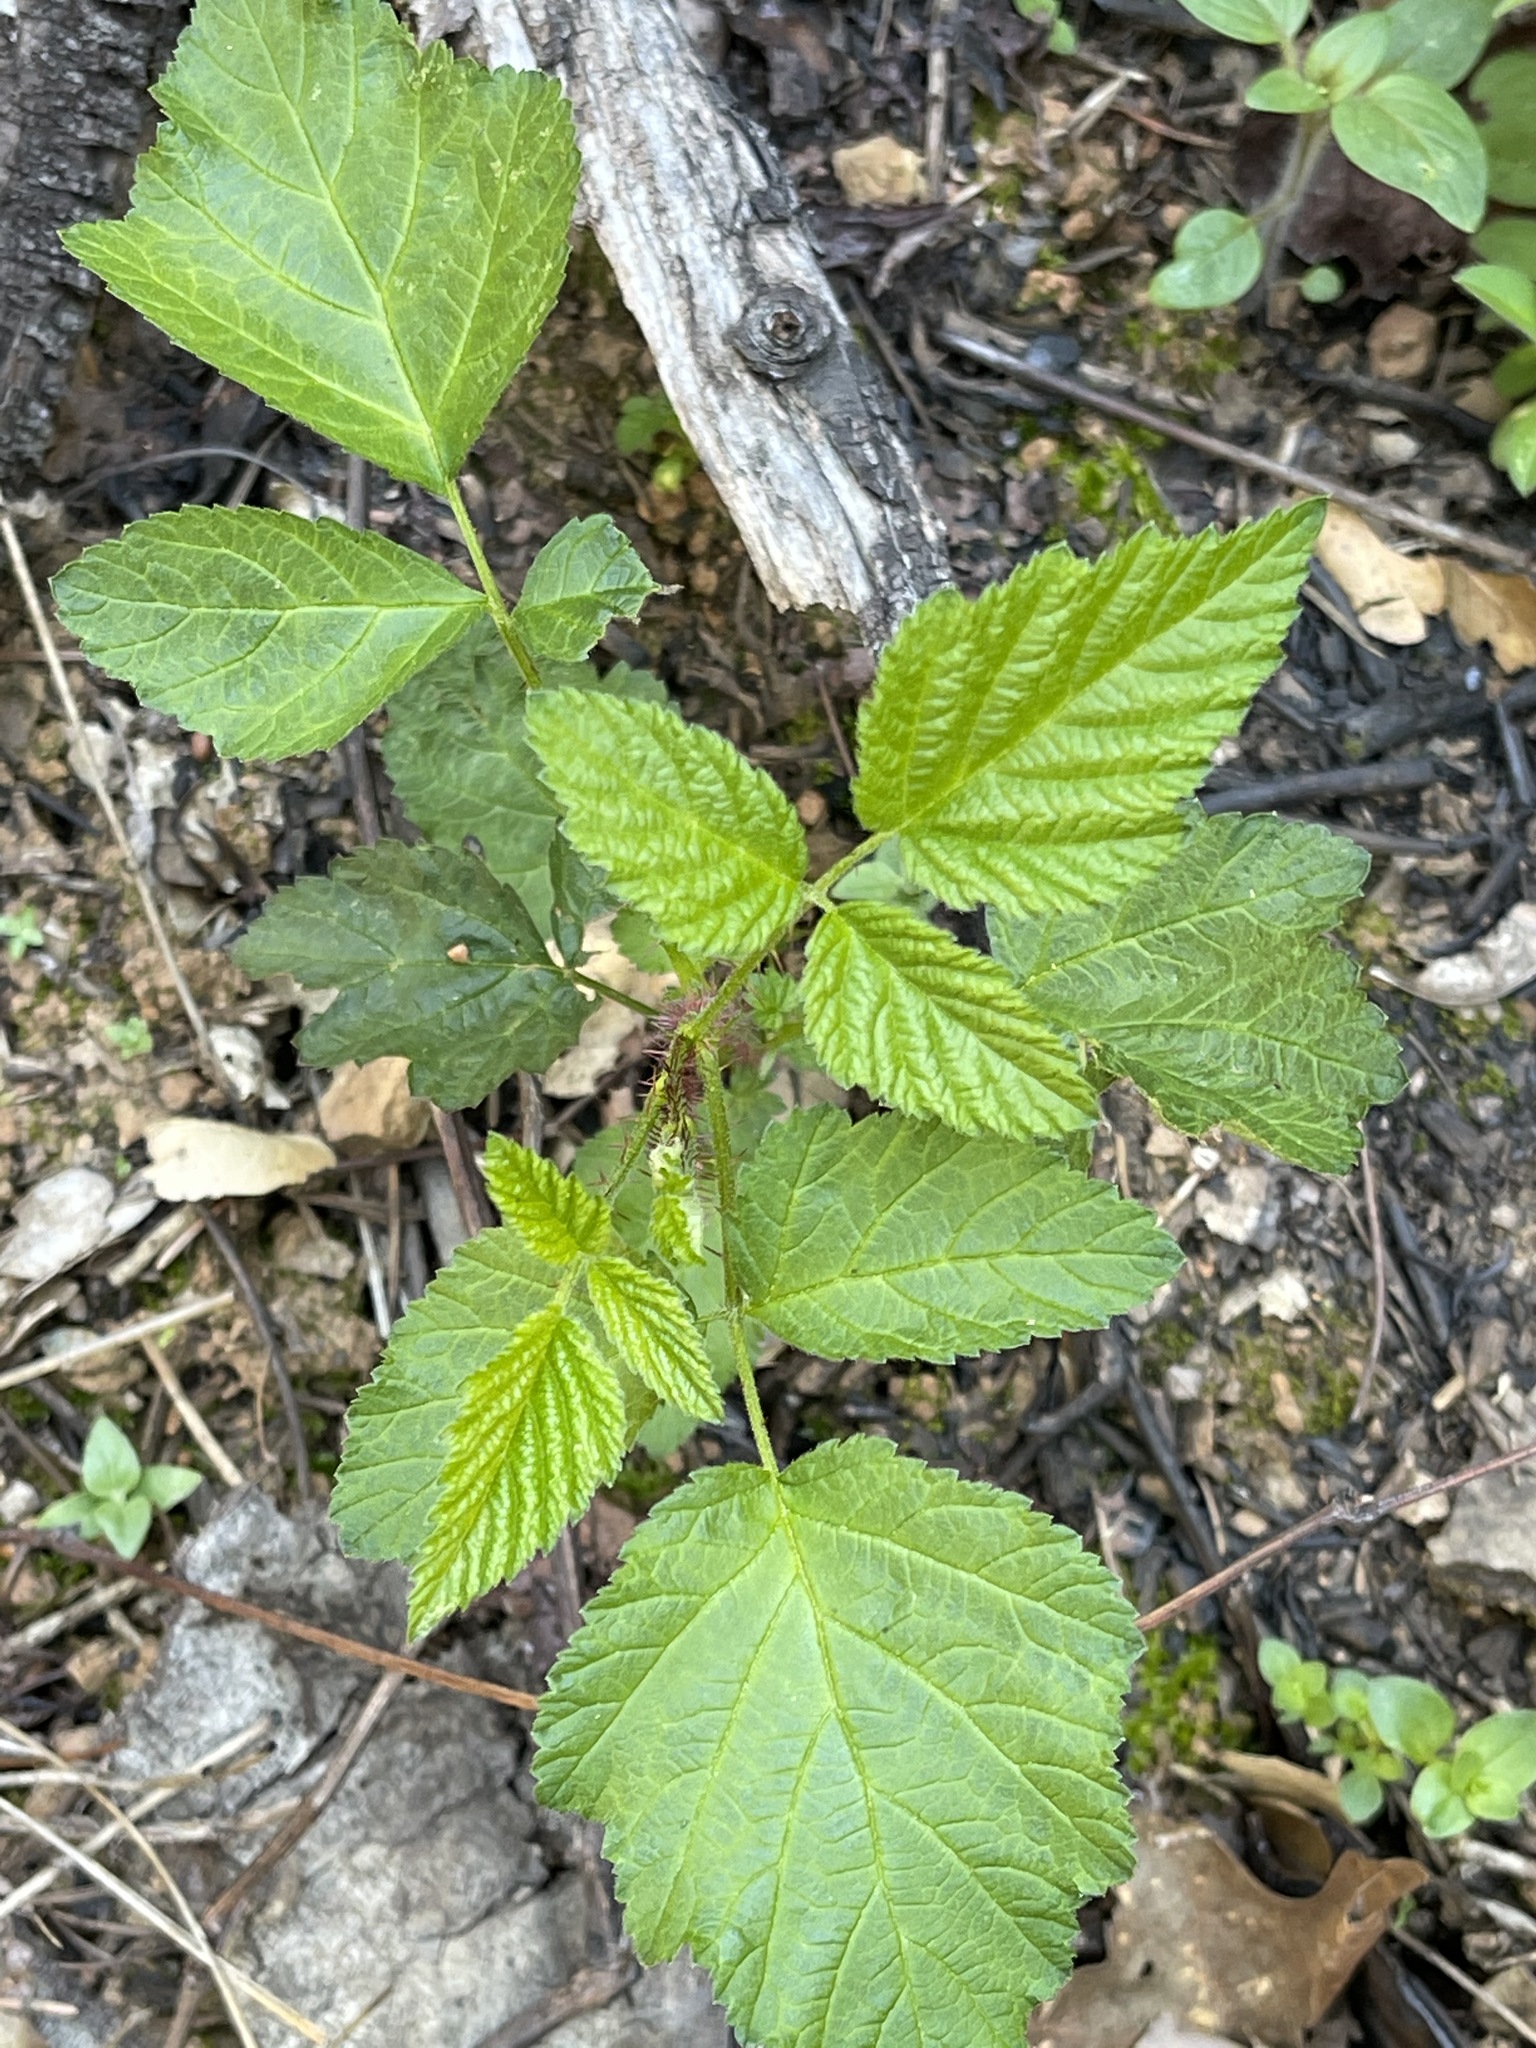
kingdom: Plantae
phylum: Tracheophyta
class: Magnoliopsida
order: Rosales
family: Rosaceae
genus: Rubus
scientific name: Rubus ursinus
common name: Pacific blackberry
